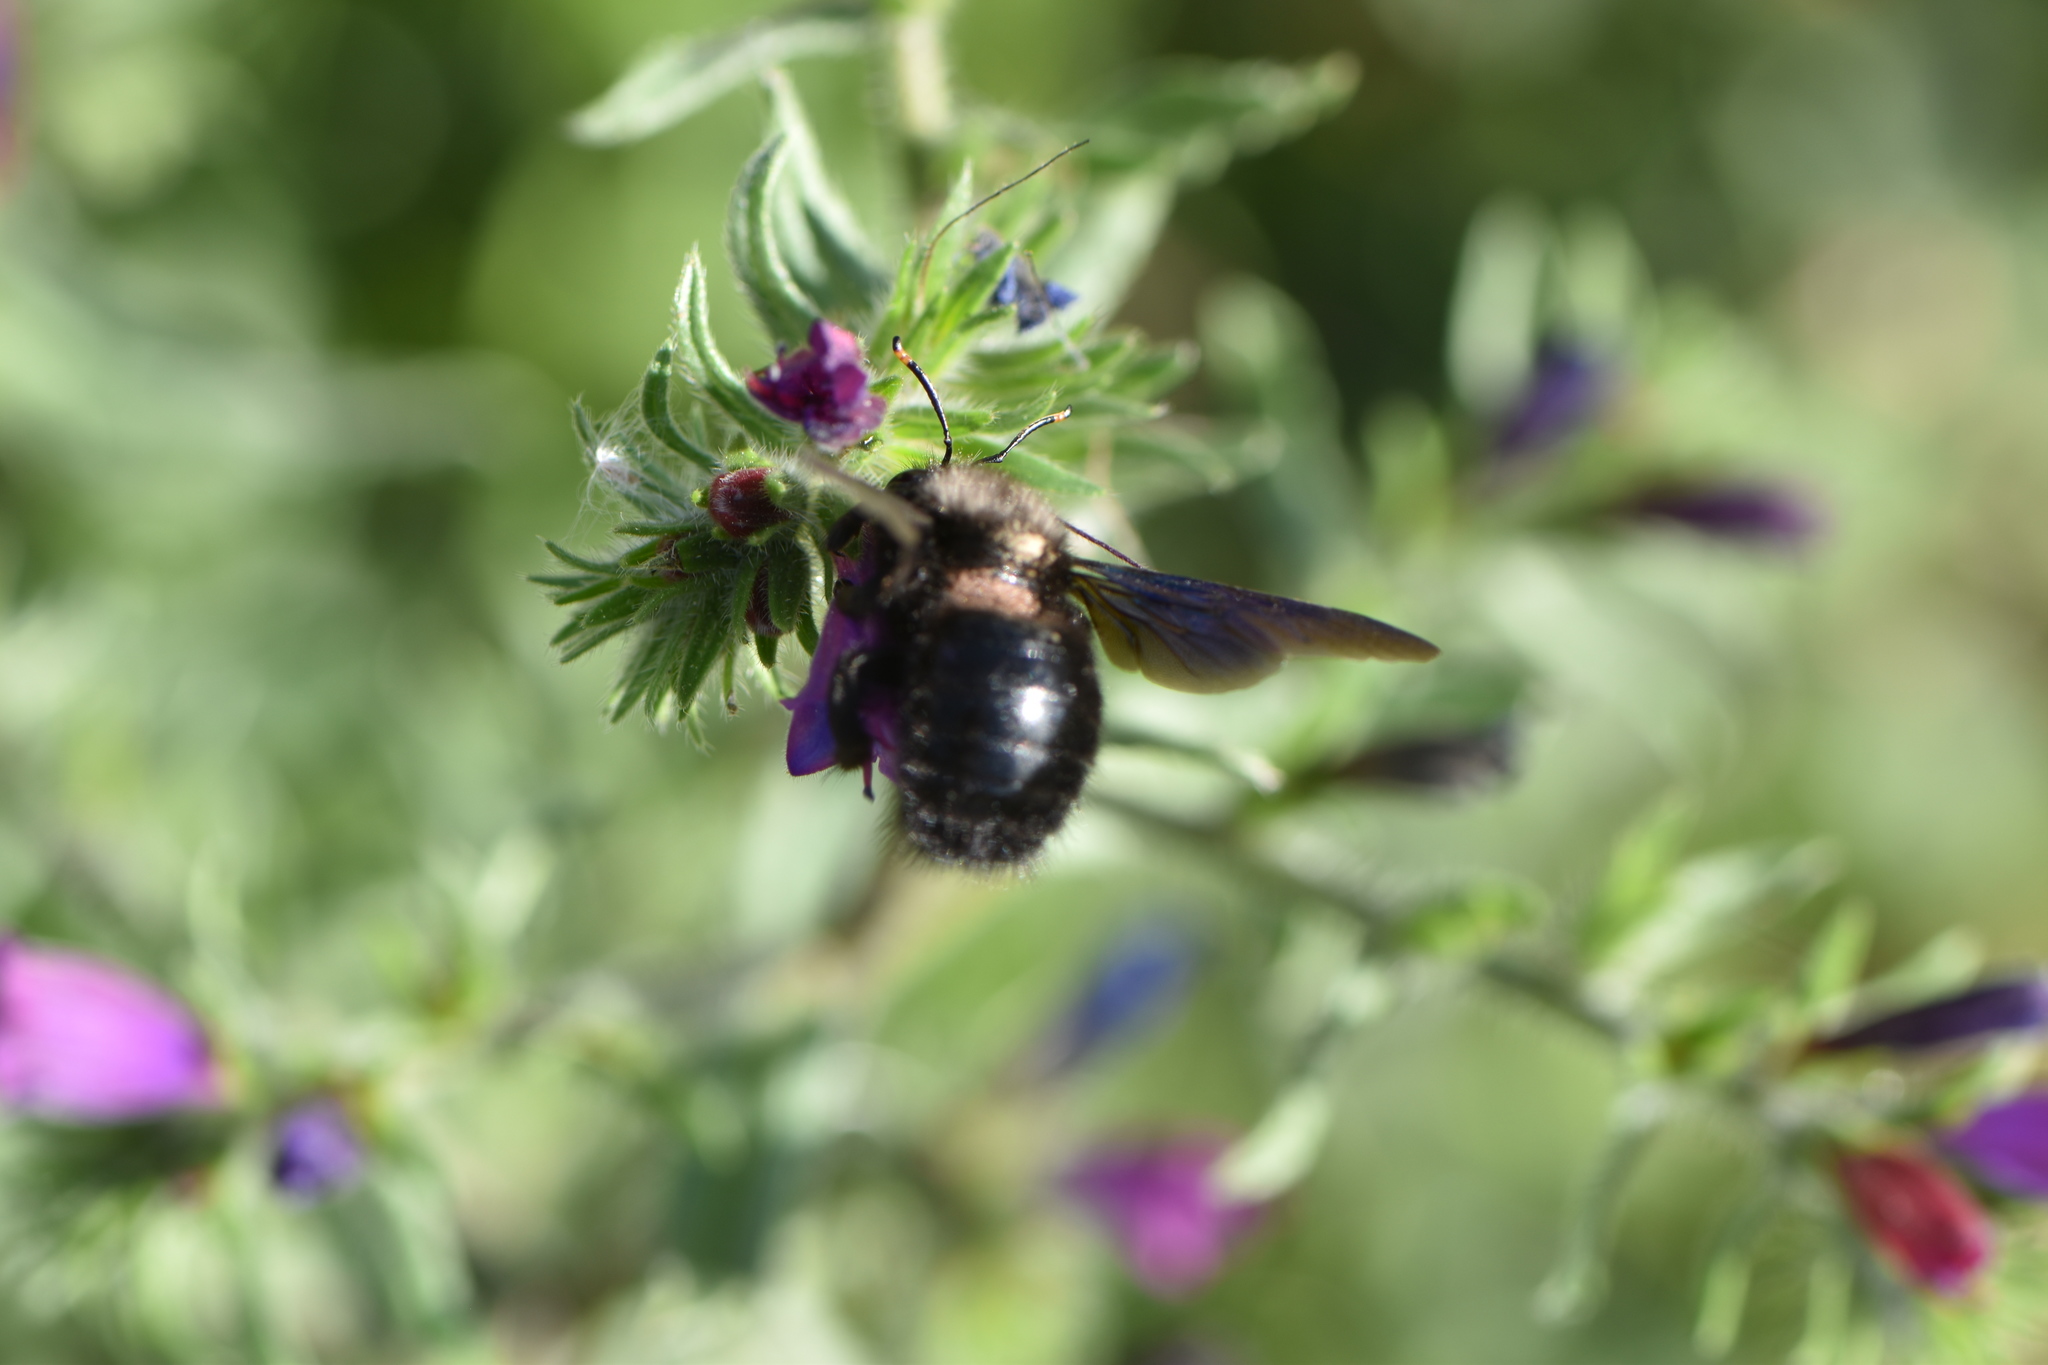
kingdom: Animalia
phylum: Arthropoda
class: Insecta
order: Hymenoptera
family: Apidae
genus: Xylocopa
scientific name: Xylocopa violacea
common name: Violet carpenter bee
